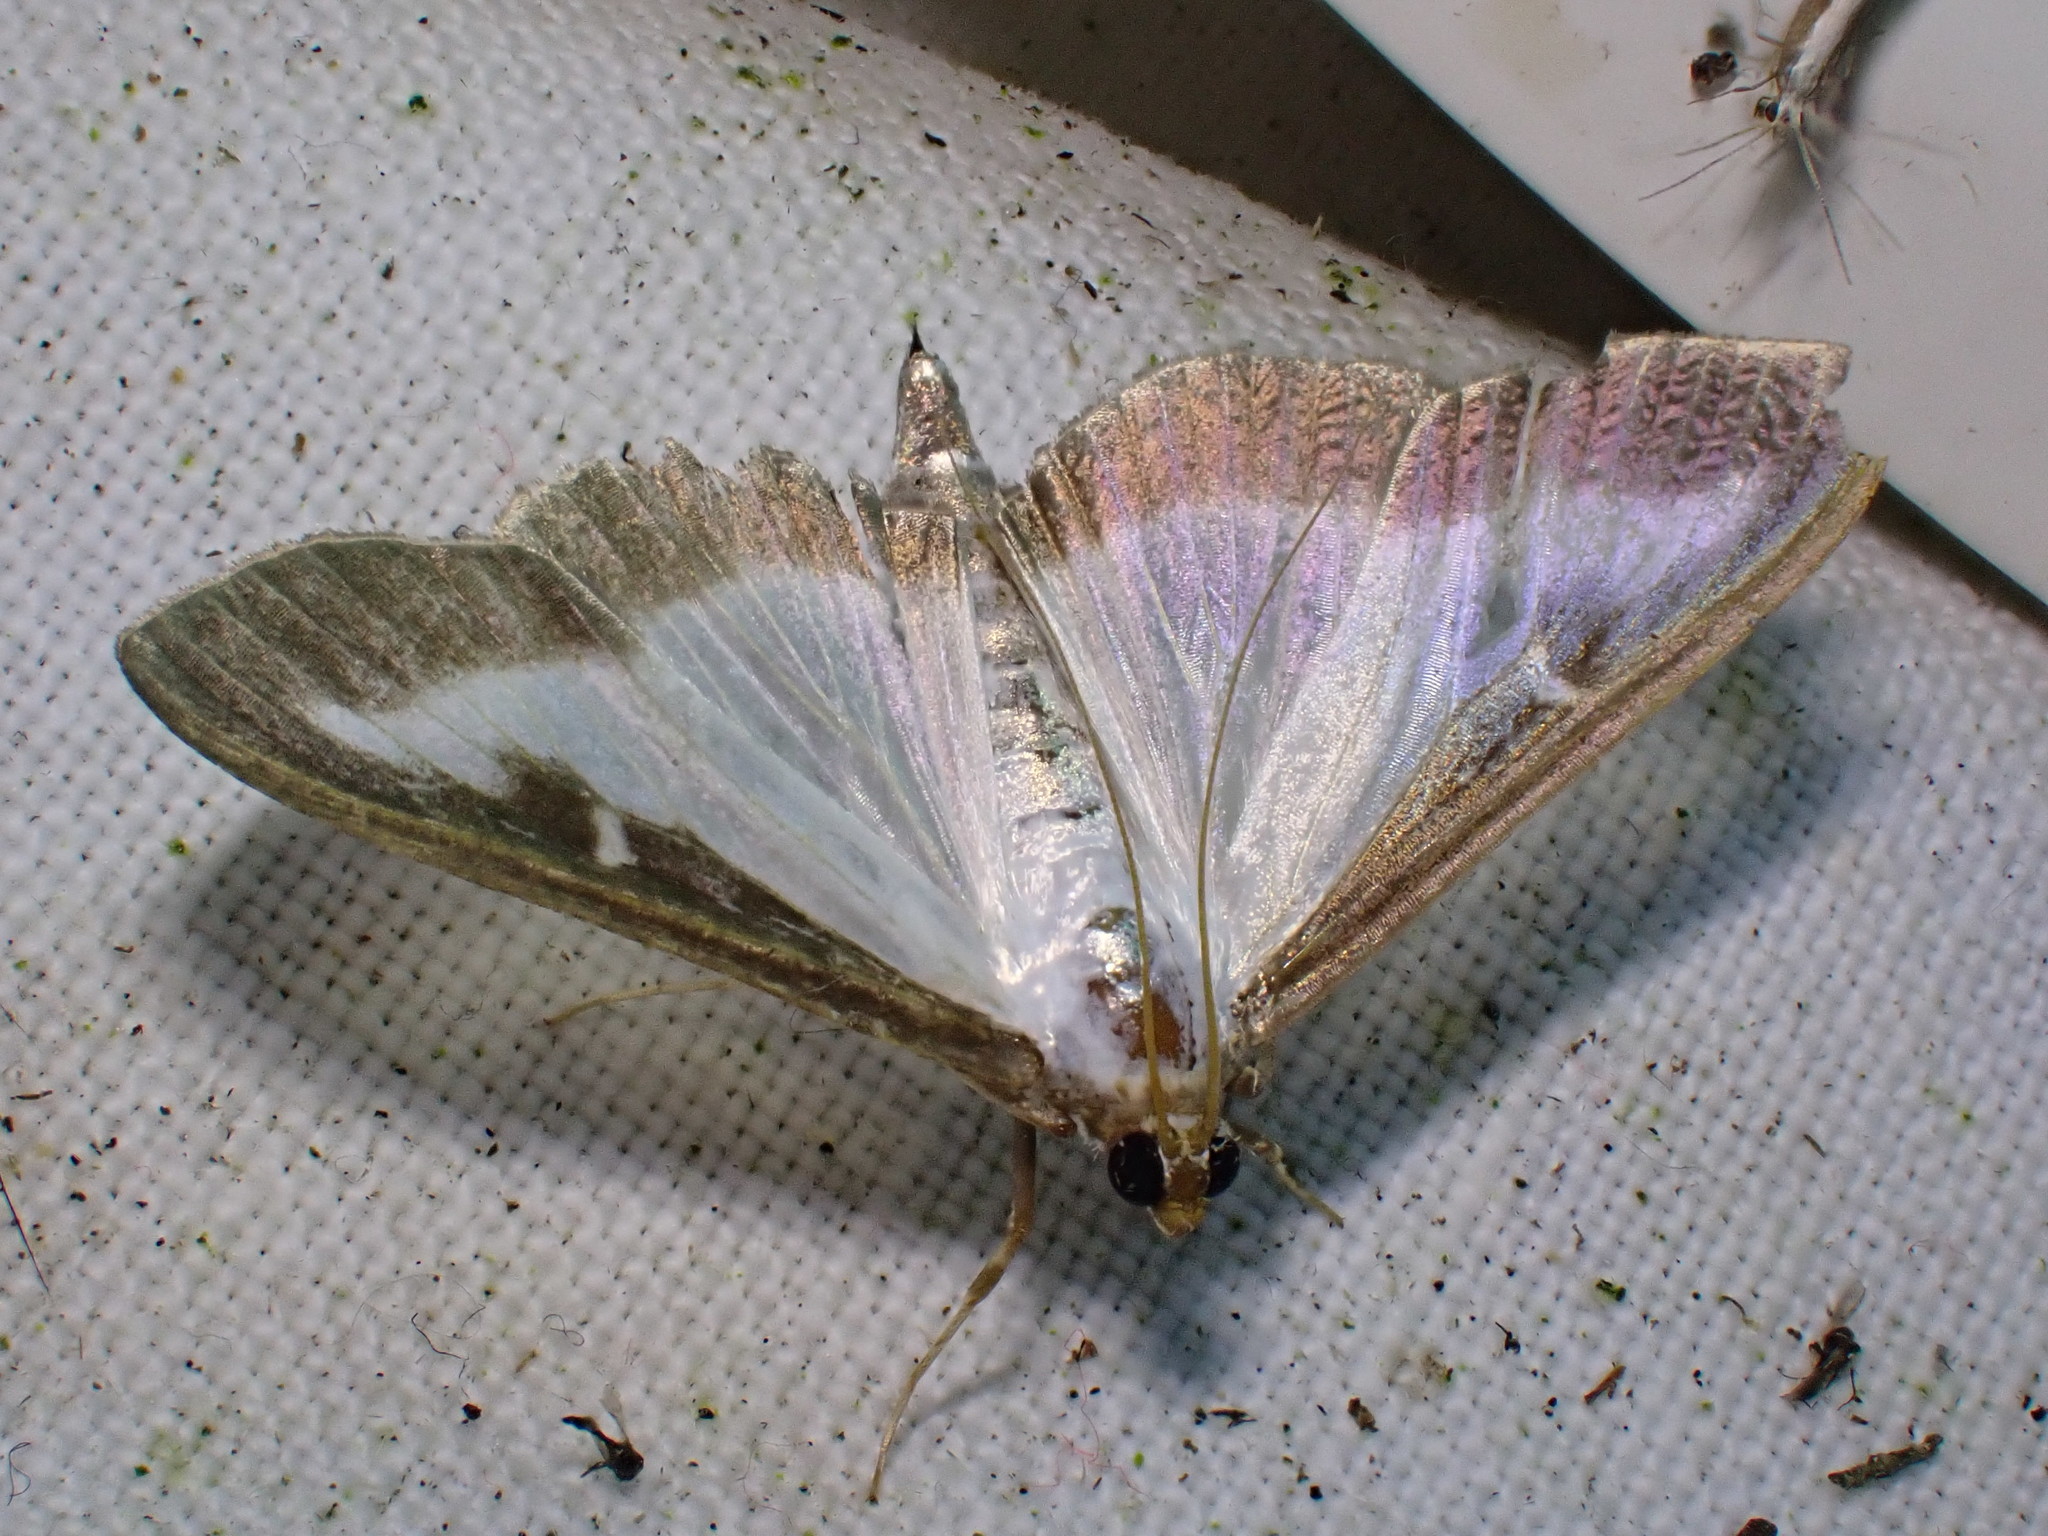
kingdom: Animalia
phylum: Arthropoda
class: Insecta
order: Lepidoptera
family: Crambidae
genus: Cydalima
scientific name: Cydalima perspectalis
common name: Box tree moth
